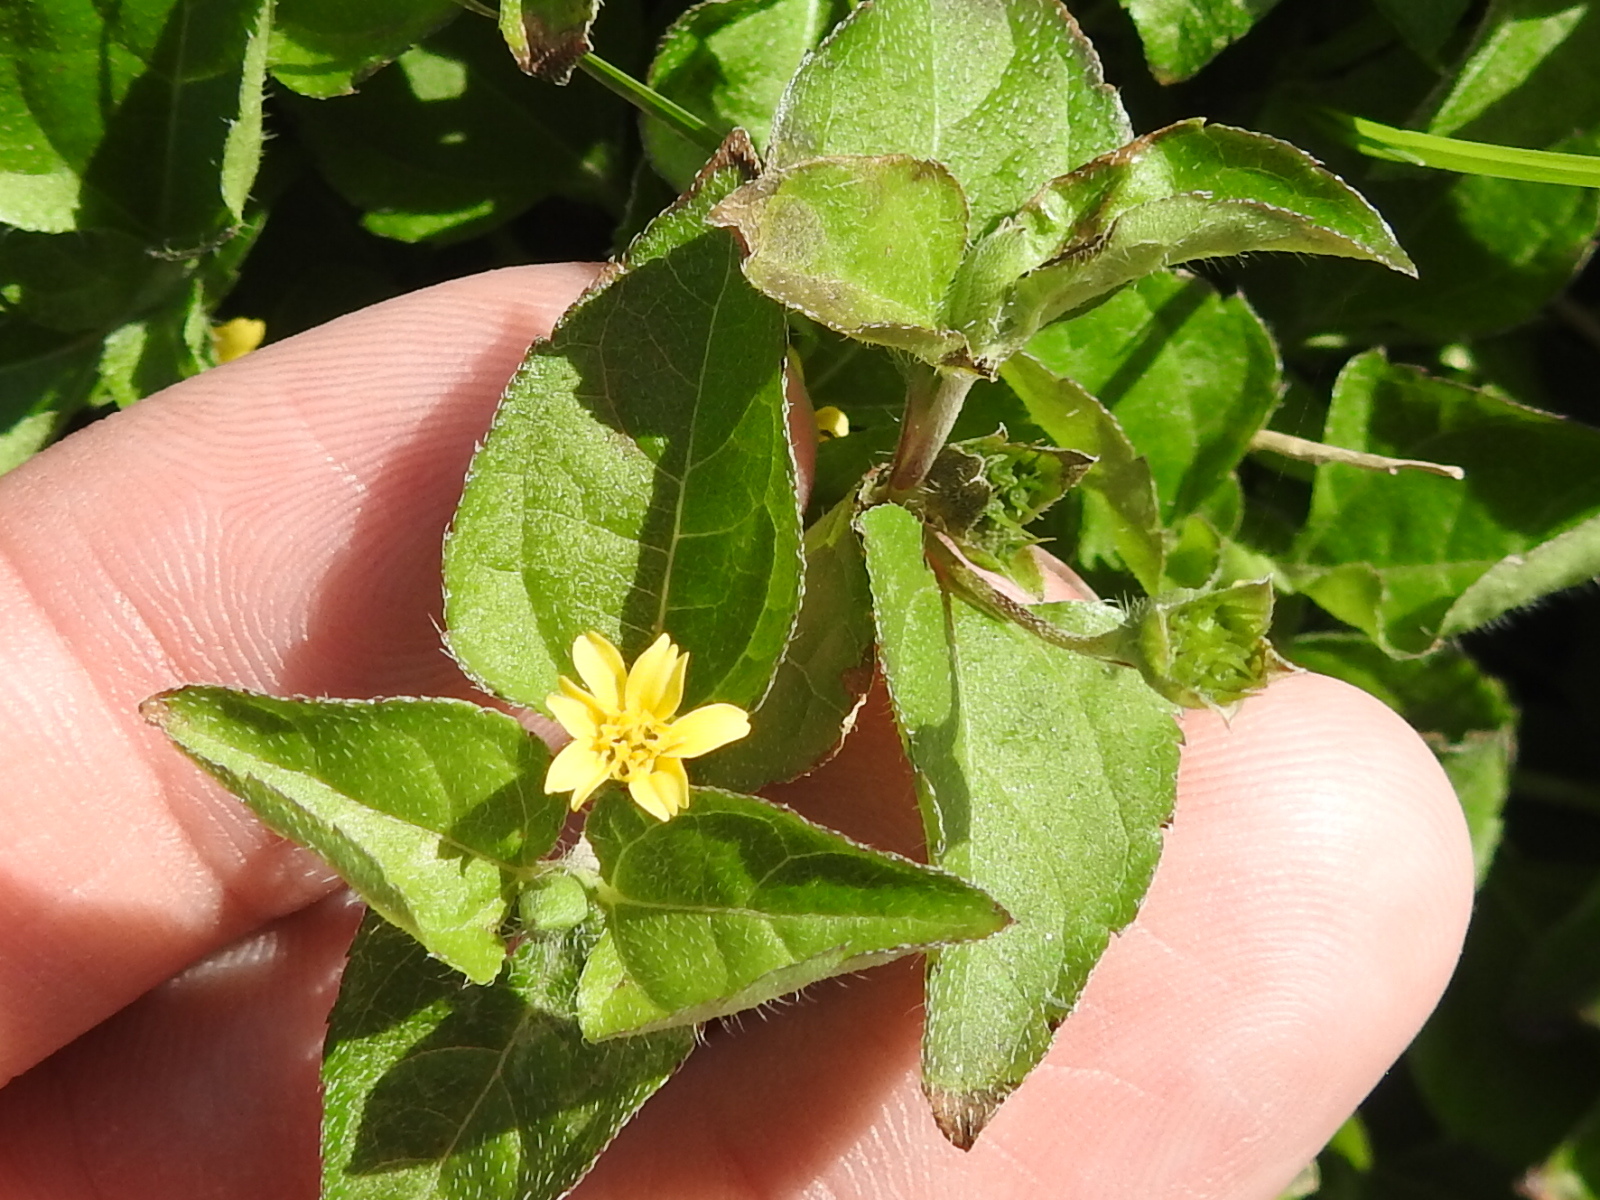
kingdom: Plantae
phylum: Tracheophyta
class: Magnoliopsida
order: Asterales
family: Asteraceae
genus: Calyptocarpus
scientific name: Calyptocarpus vialis
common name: Straggler daisy
